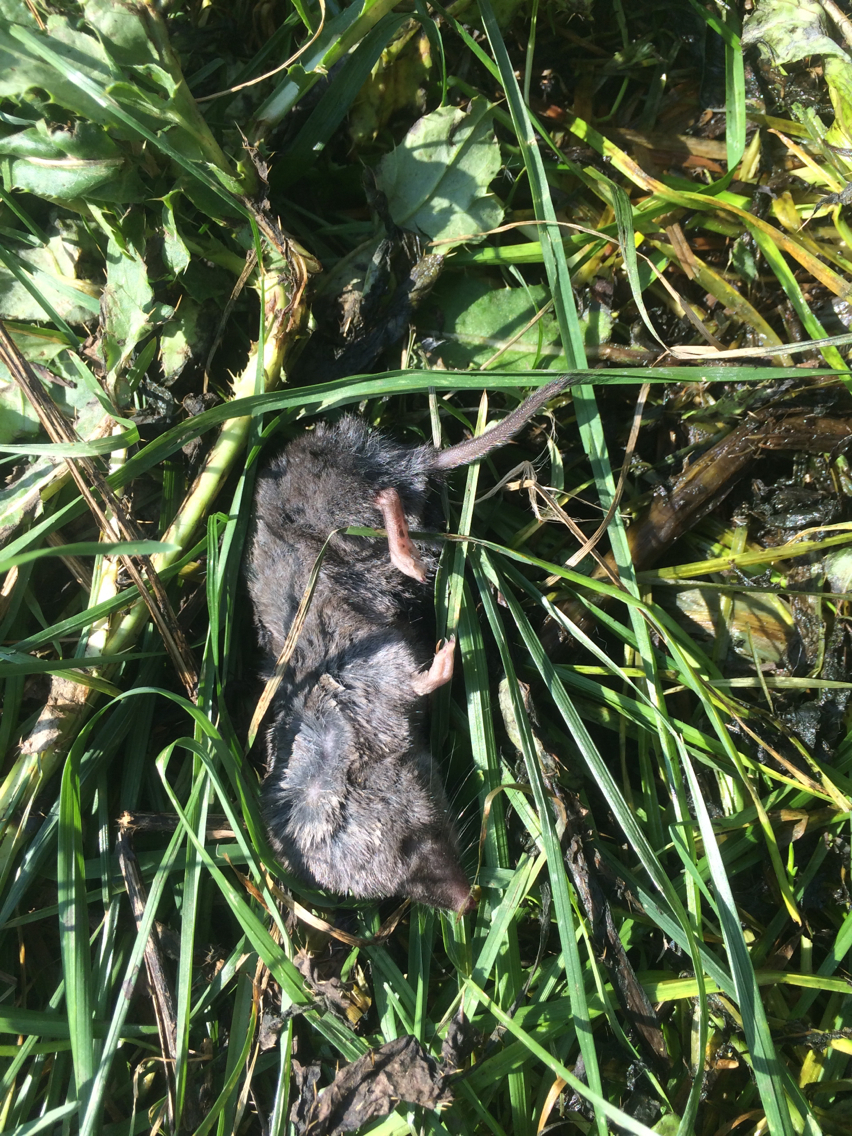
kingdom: Animalia
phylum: Chordata
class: Mammalia
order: Soricomorpha
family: Soricidae
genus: Blarina
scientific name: Blarina brevicauda
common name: Northern short-tailed shrew
